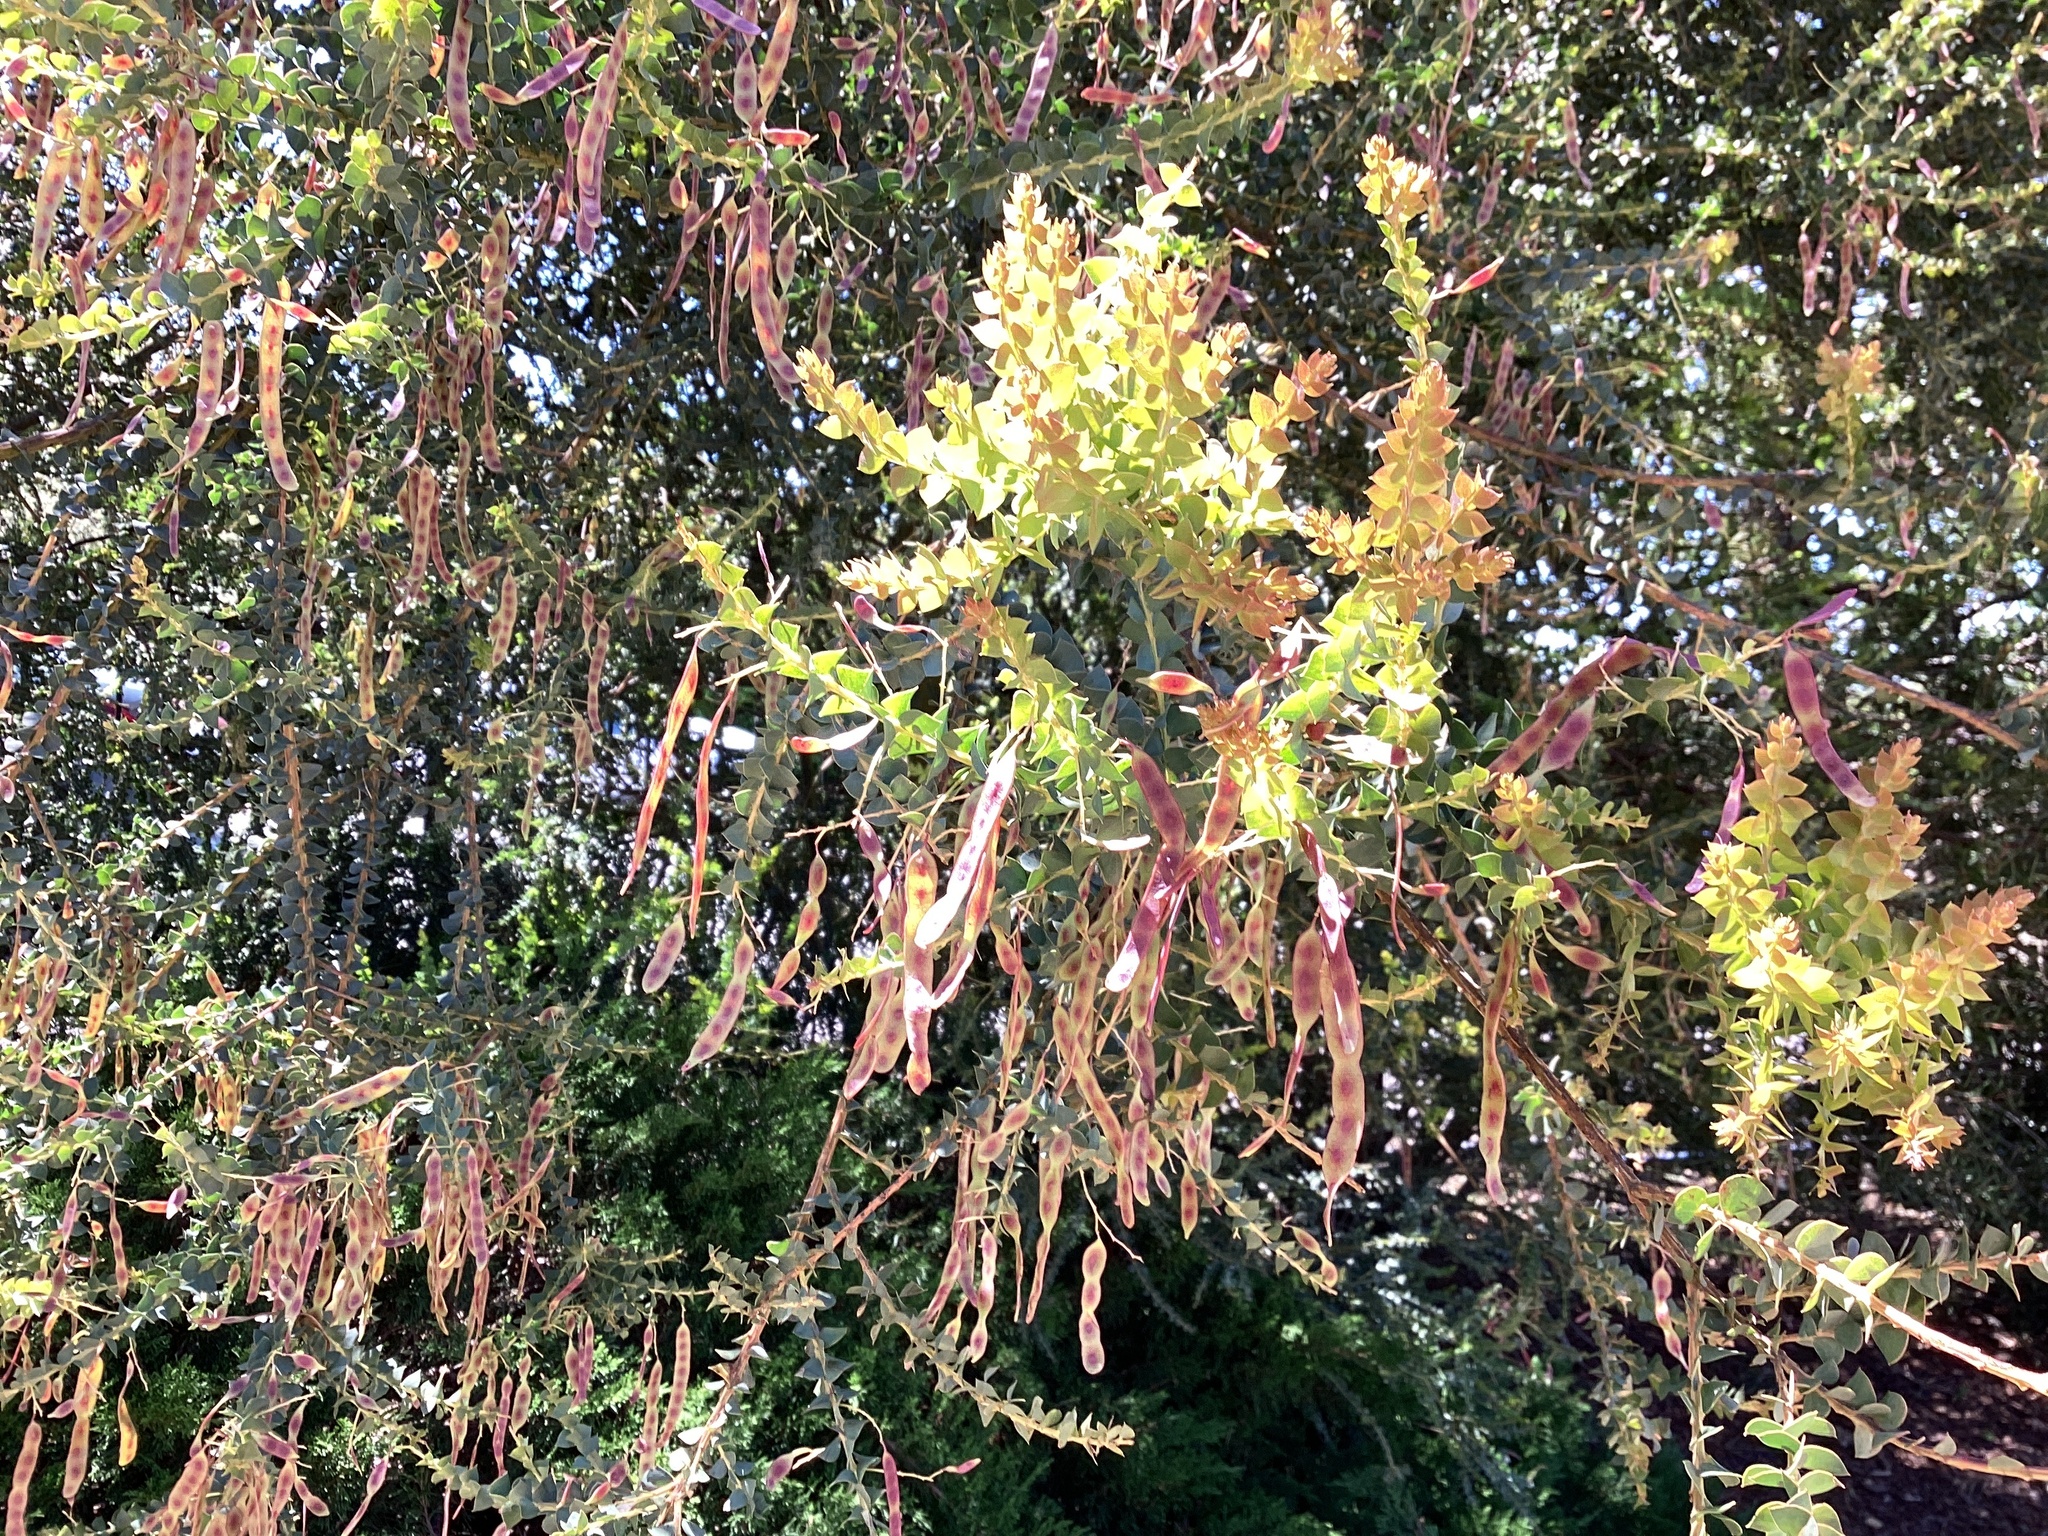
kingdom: Plantae
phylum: Tracheophyta
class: Magnoliopsida
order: Fabales
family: Fabaceae
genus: Acacia
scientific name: Acacia pravissima
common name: Tumut wattle
